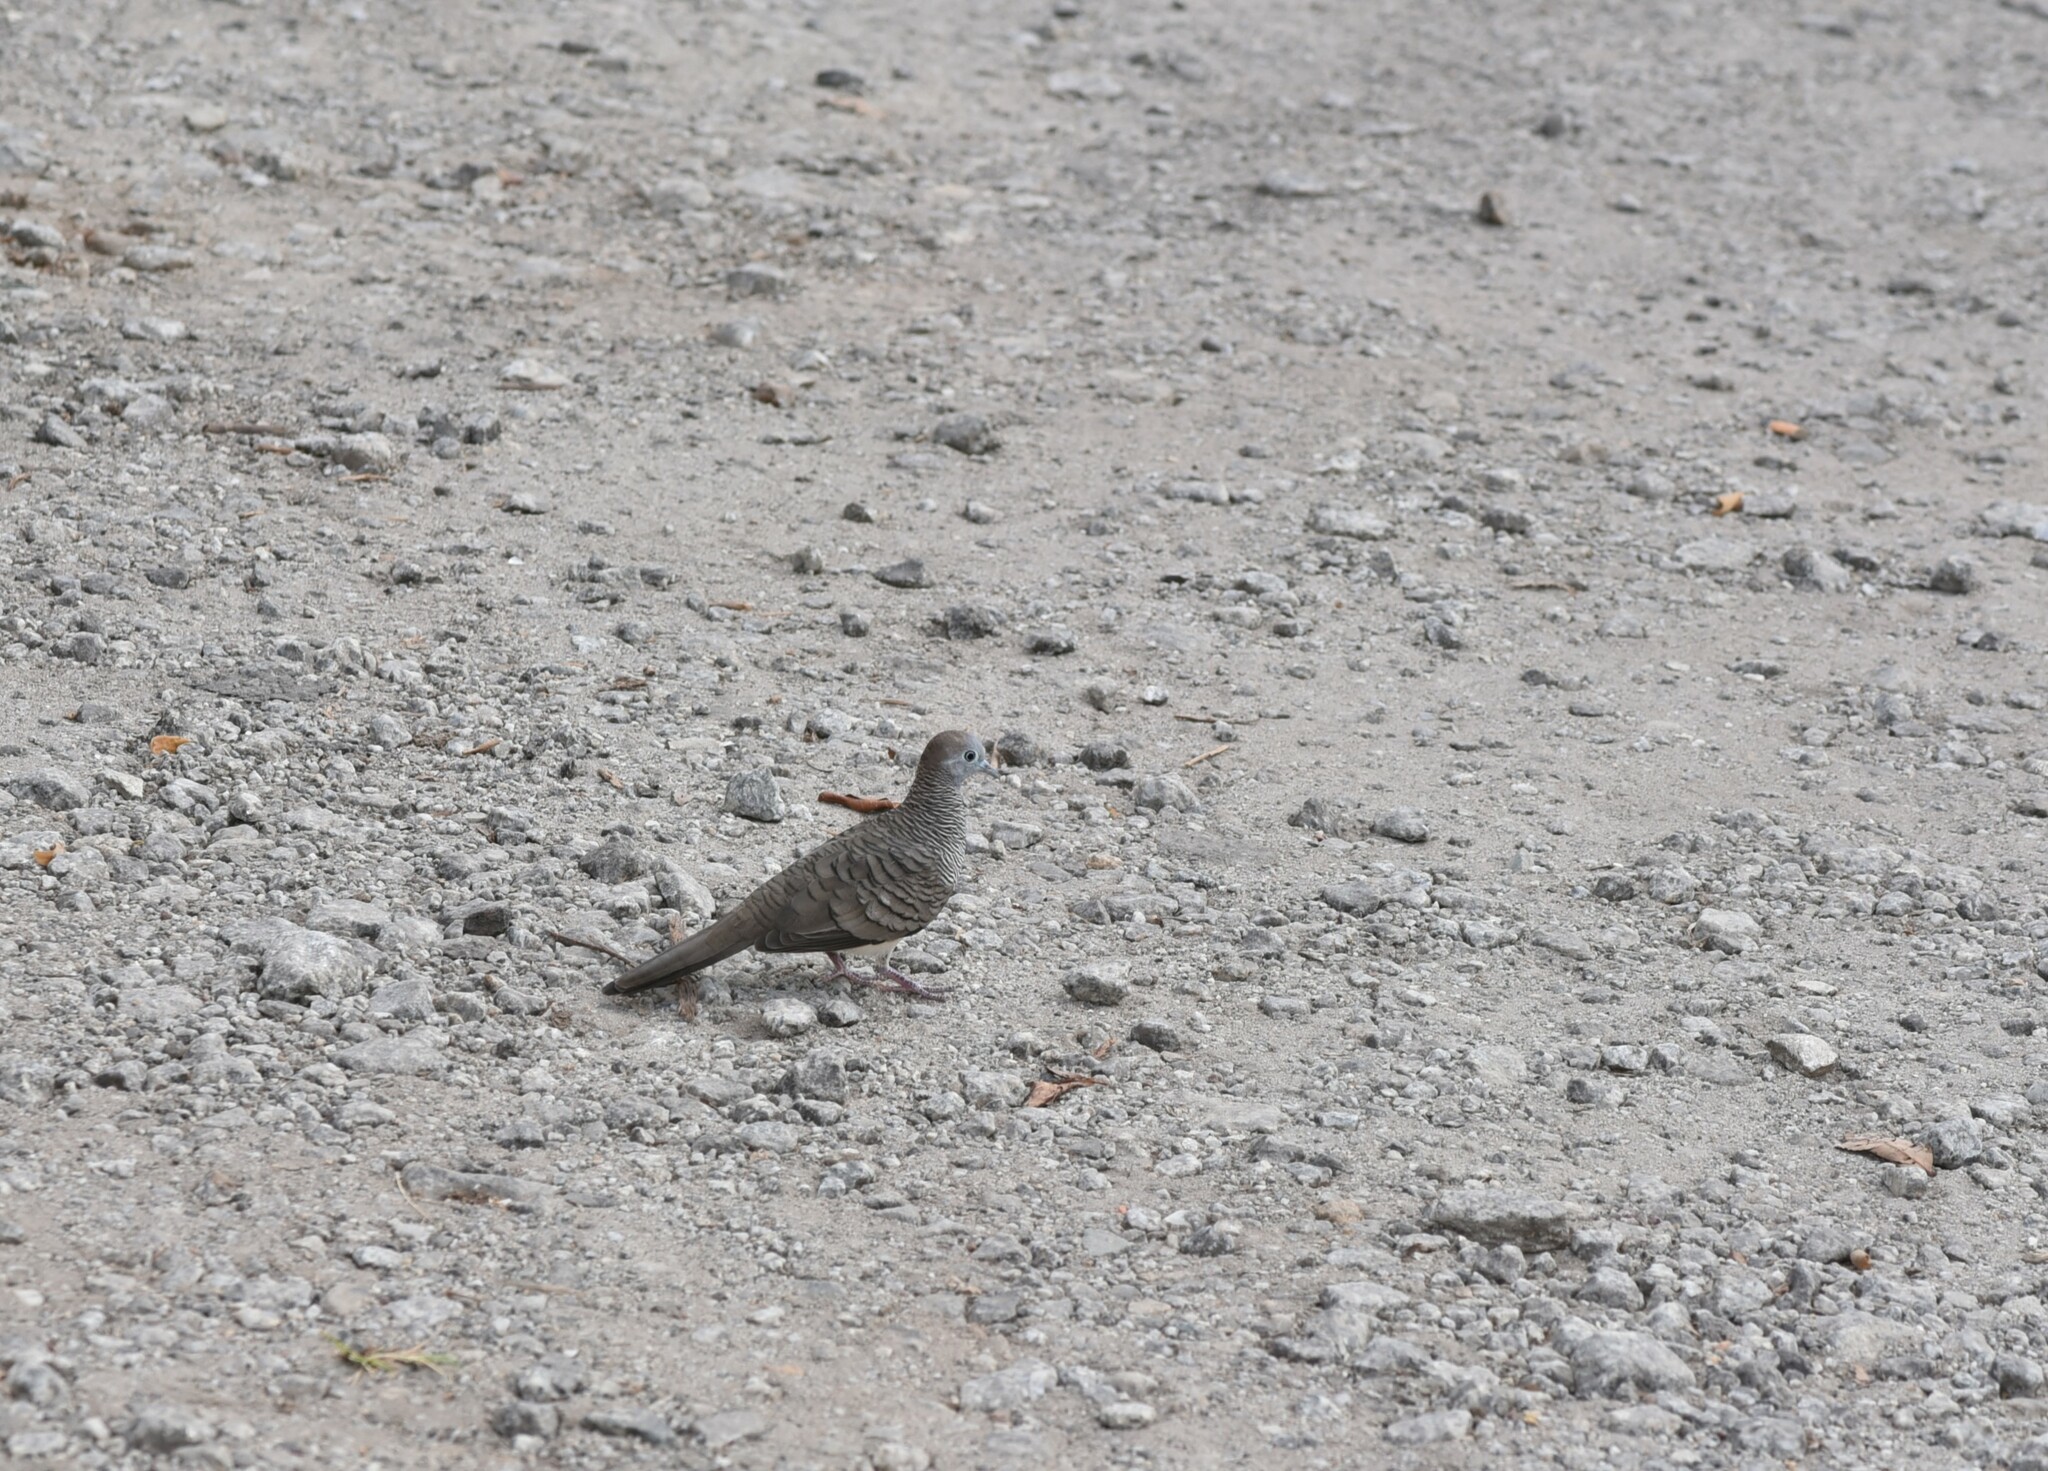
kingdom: Animalia
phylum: Chordata
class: Aves
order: Columbiformes
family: Columbidae
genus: Geopelia
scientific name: Geopelia striata
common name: Zebra dove
